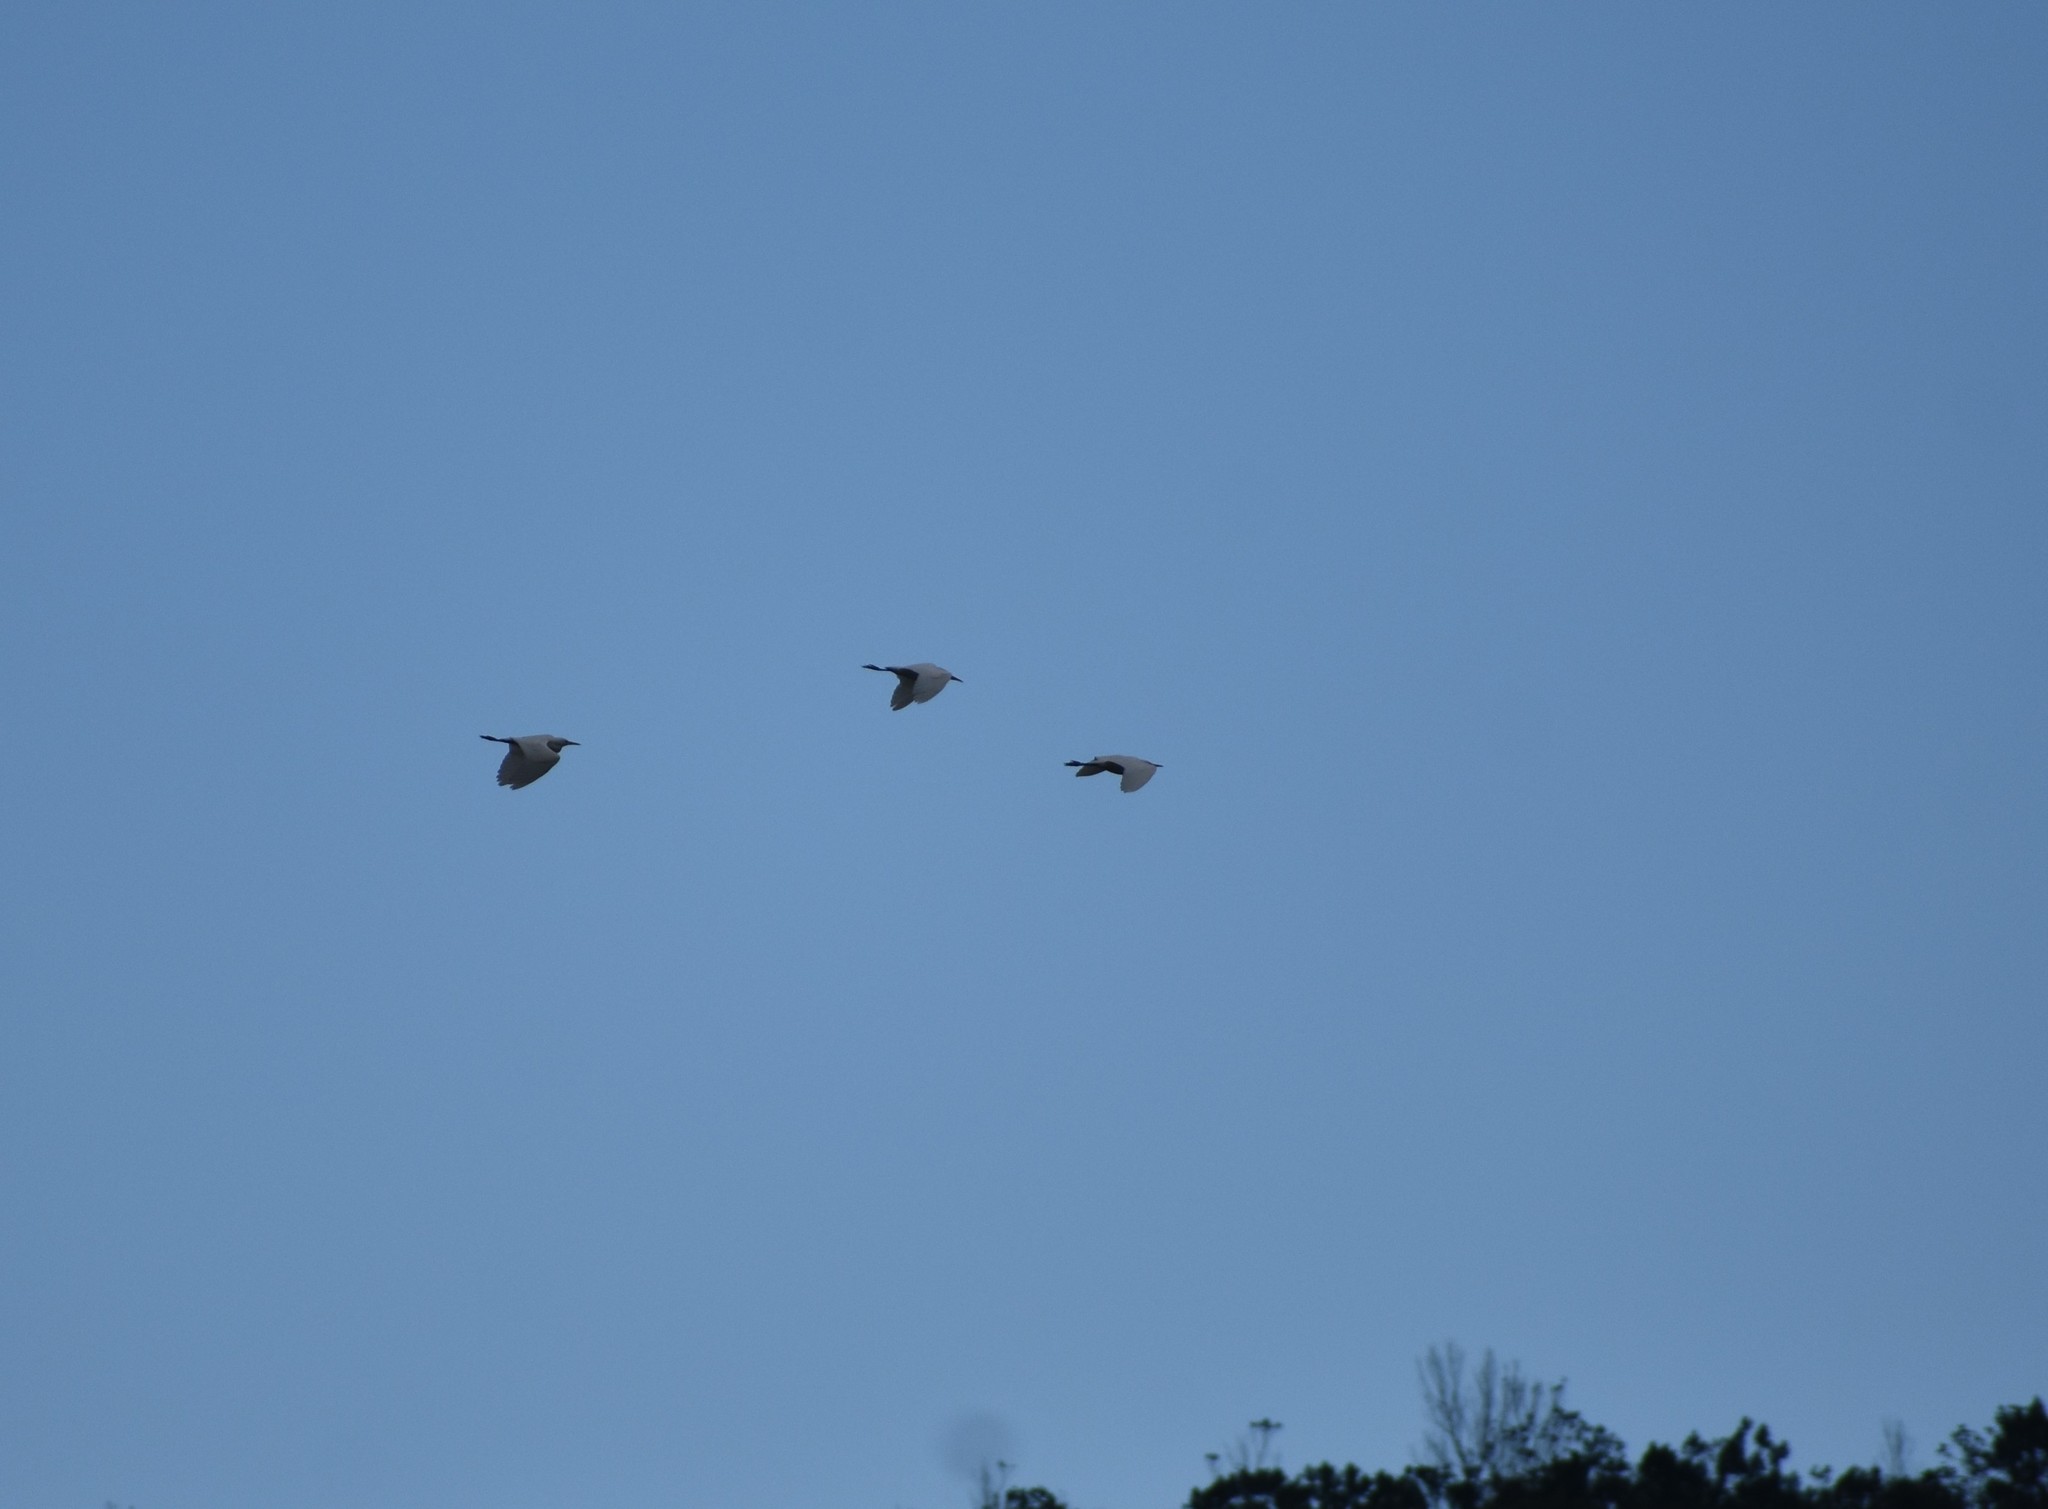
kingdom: Animalia
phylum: Chordata
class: Aves
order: Pelecaniformes
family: Ardeidae
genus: Bubulcus
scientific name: Bubulcus ibis
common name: Cattle egret
